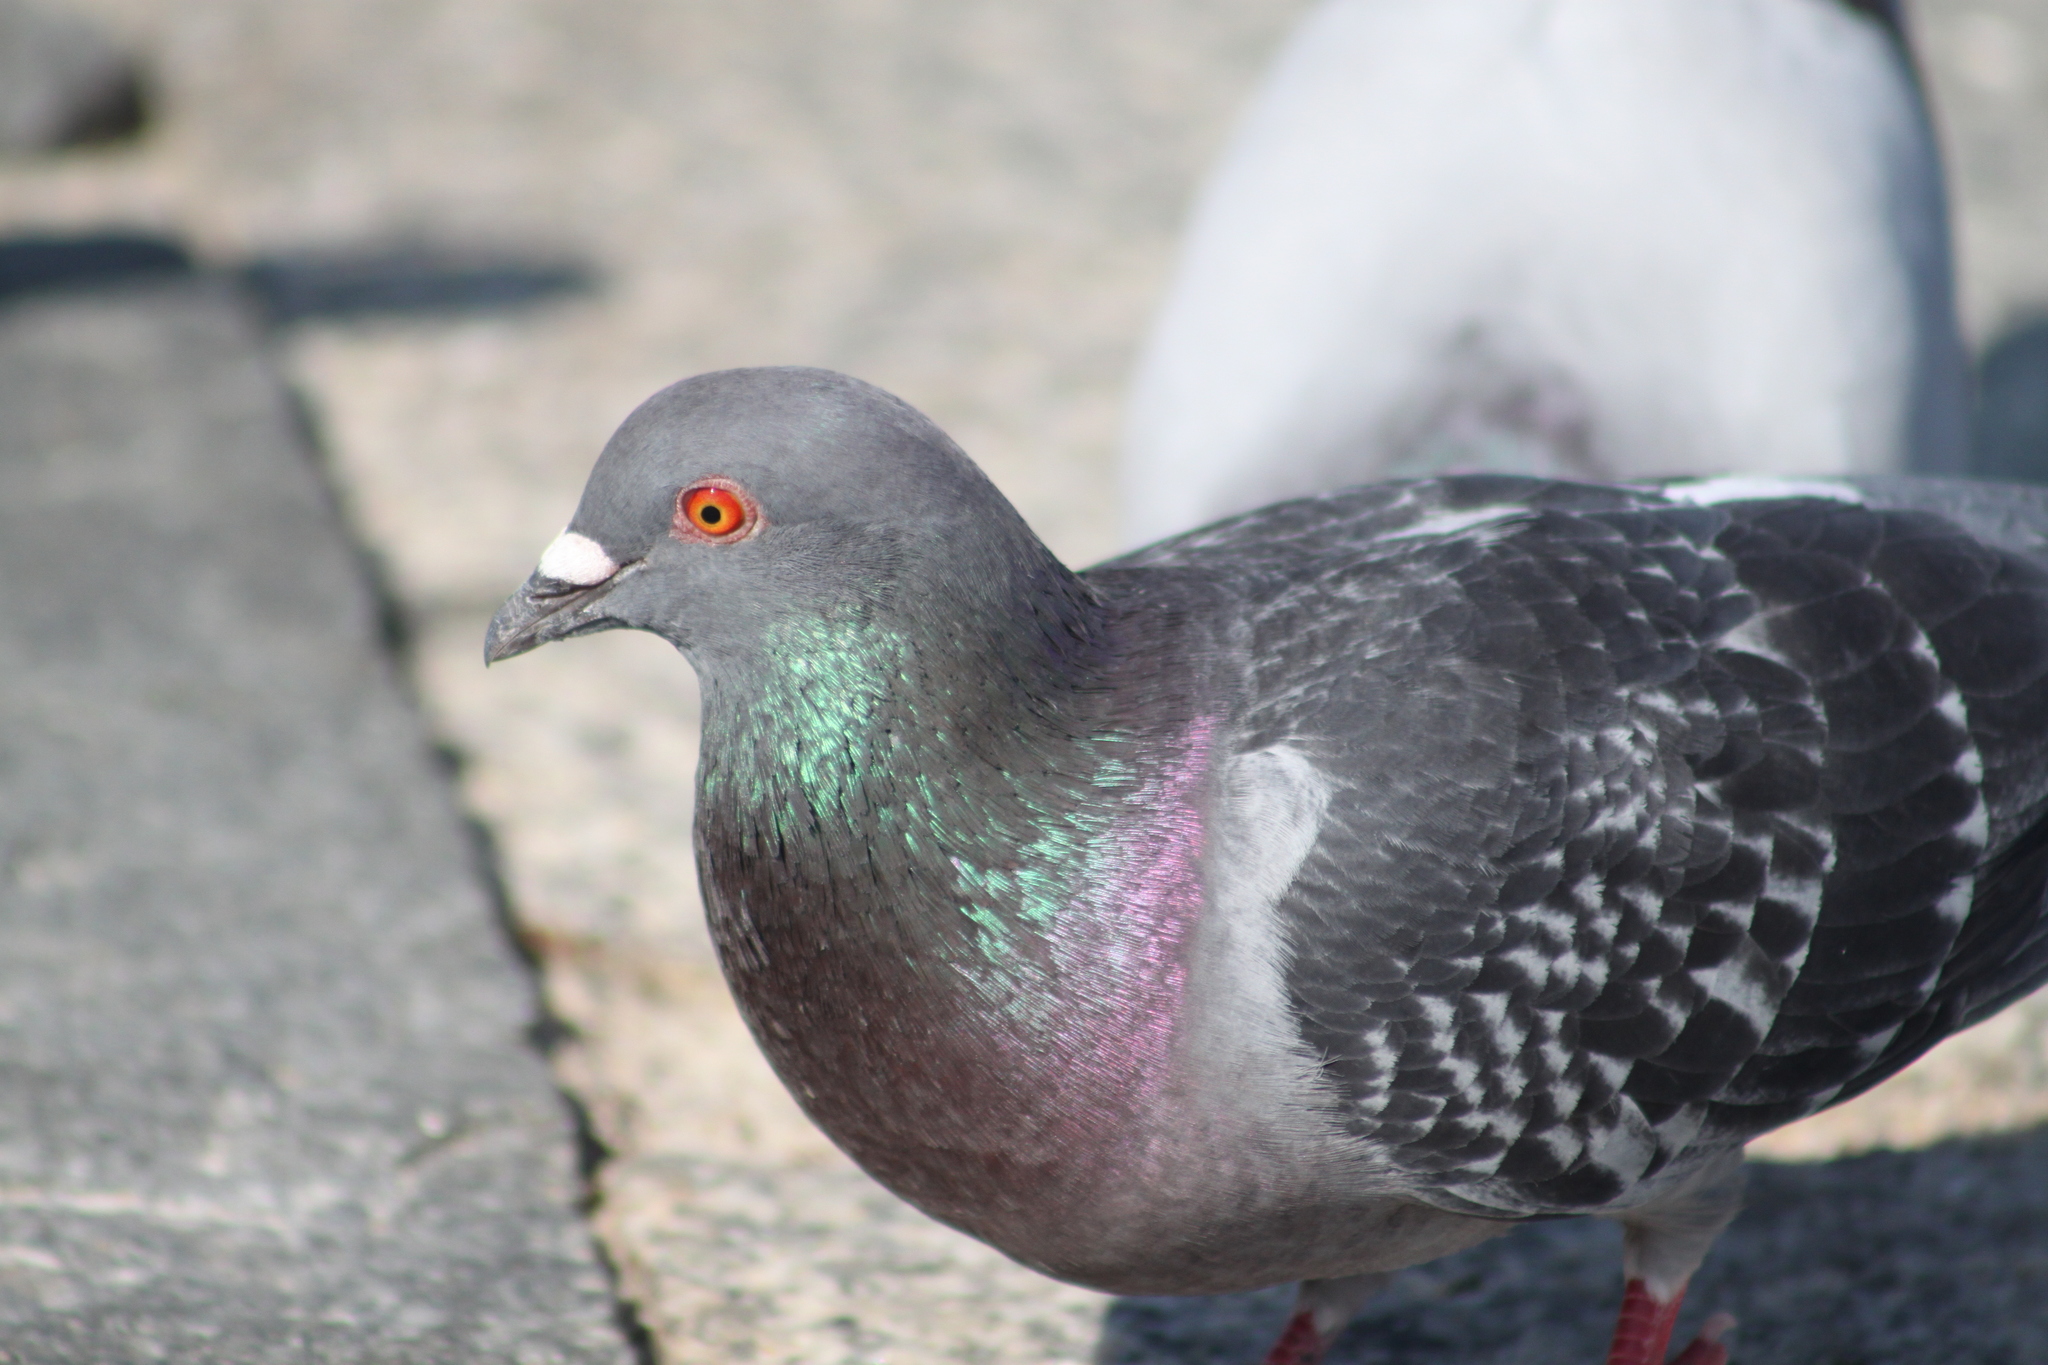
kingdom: Animalia
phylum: Chordata
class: Aves
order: Columbiformes
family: Columbidae
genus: Columba
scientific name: Columba livia
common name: Rock pigeon
